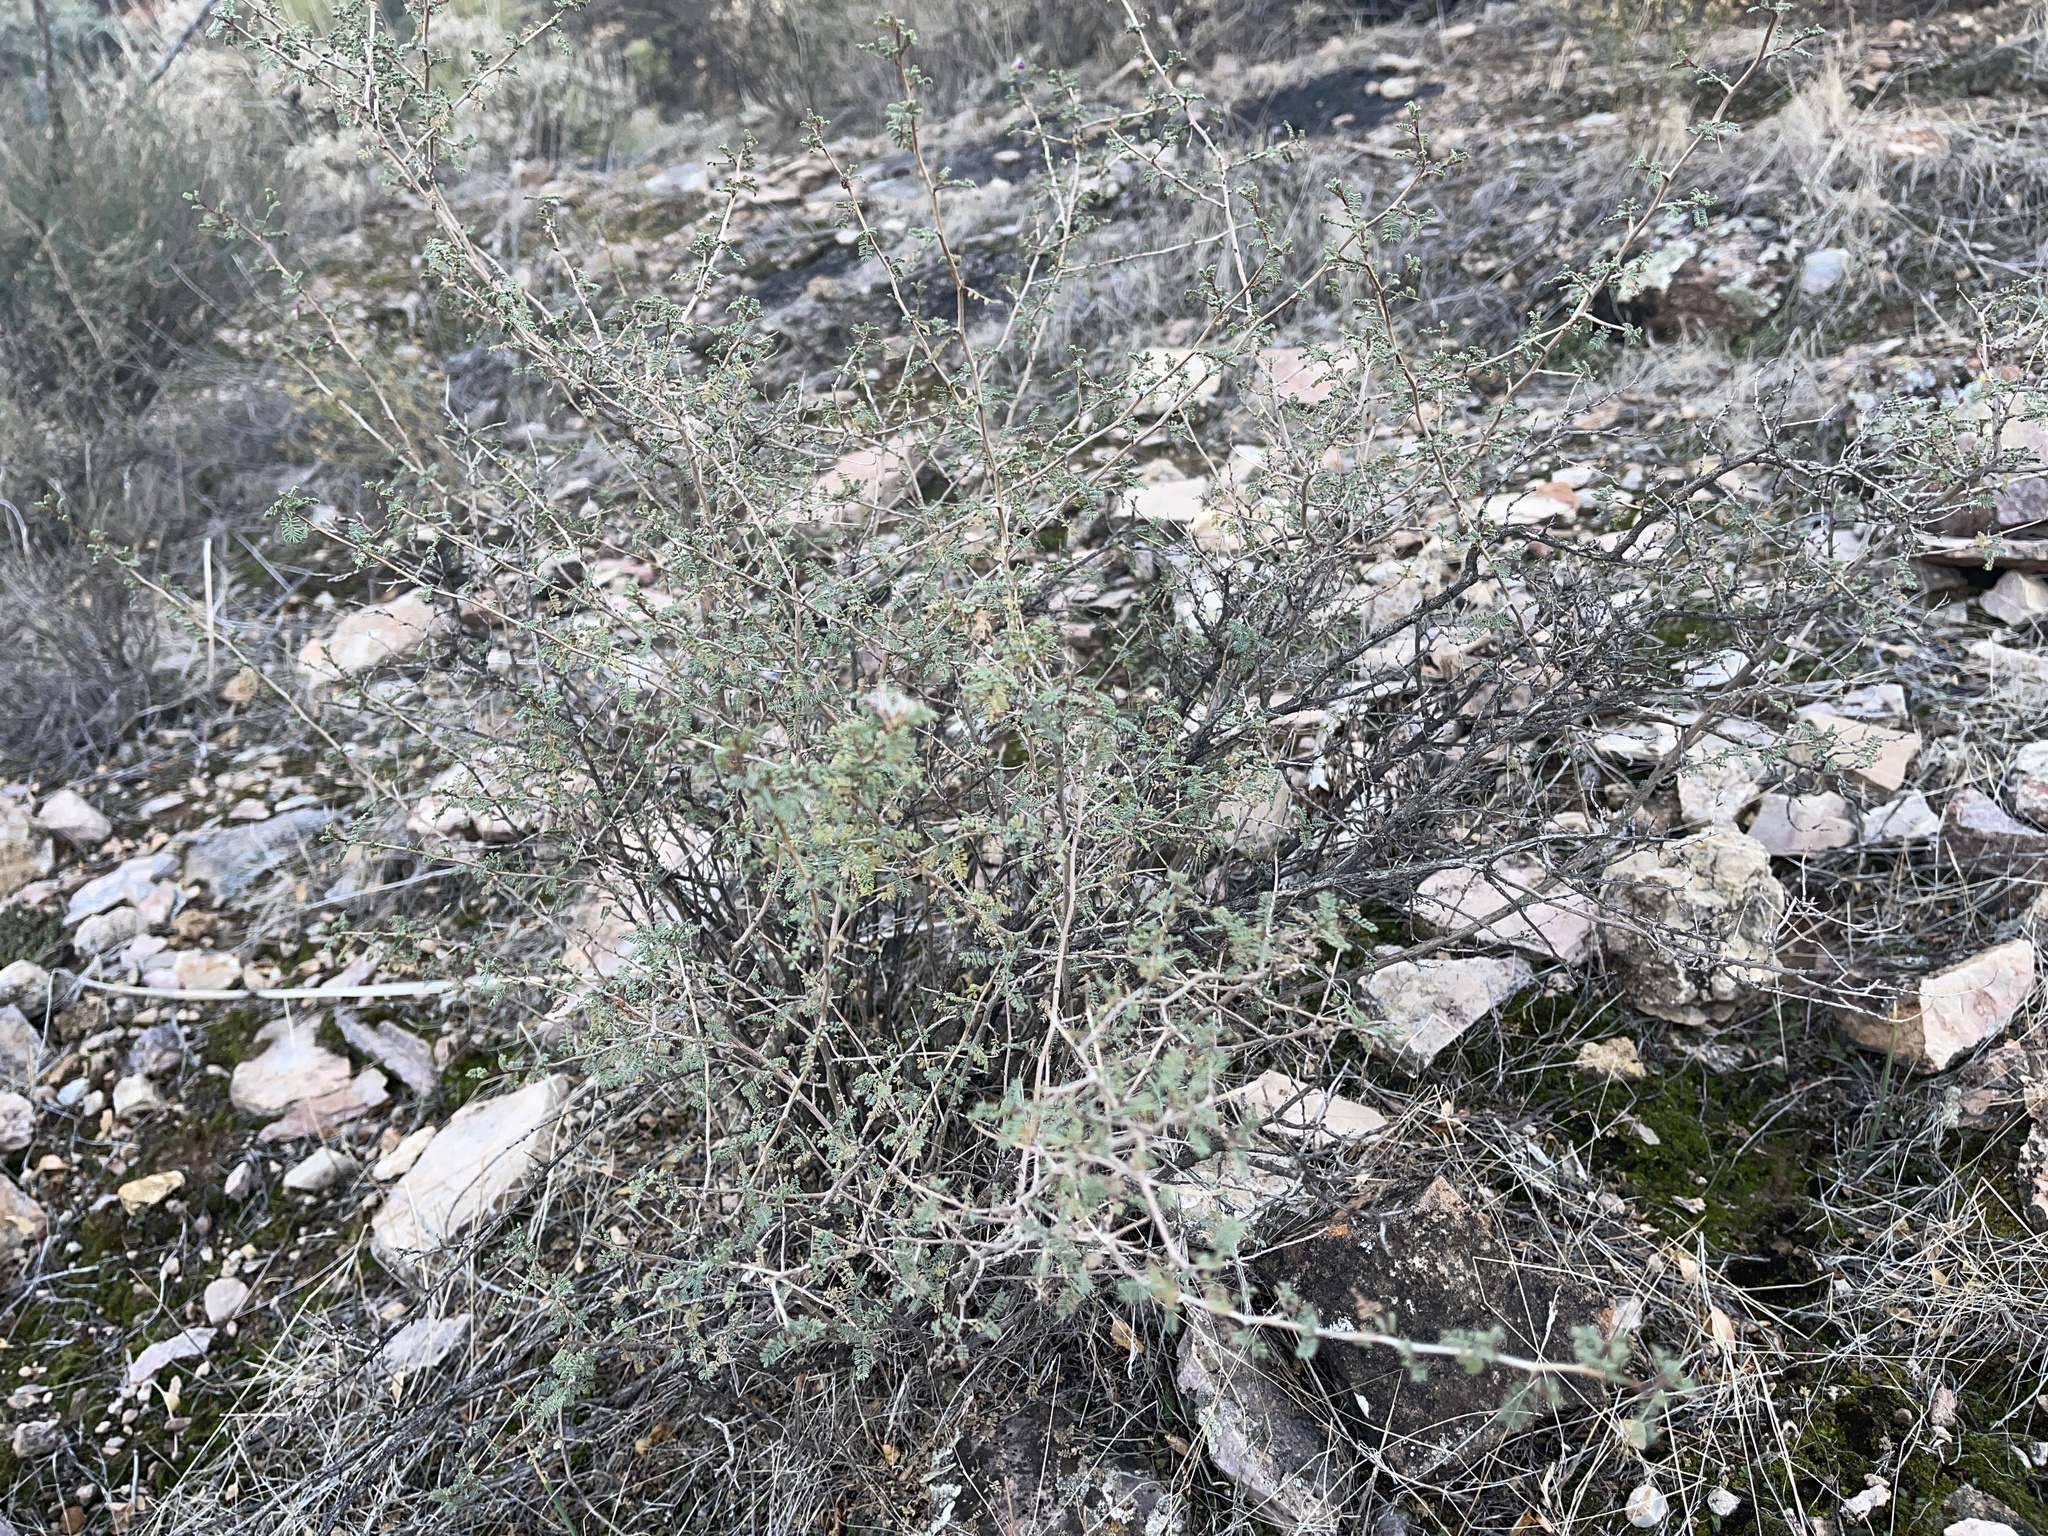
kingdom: Plantae
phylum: Tracheophyta
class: Magnoliopsida
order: Fabales
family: Fabaceae
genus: Dalea
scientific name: Dalea formosa
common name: Feather-plume dalea
